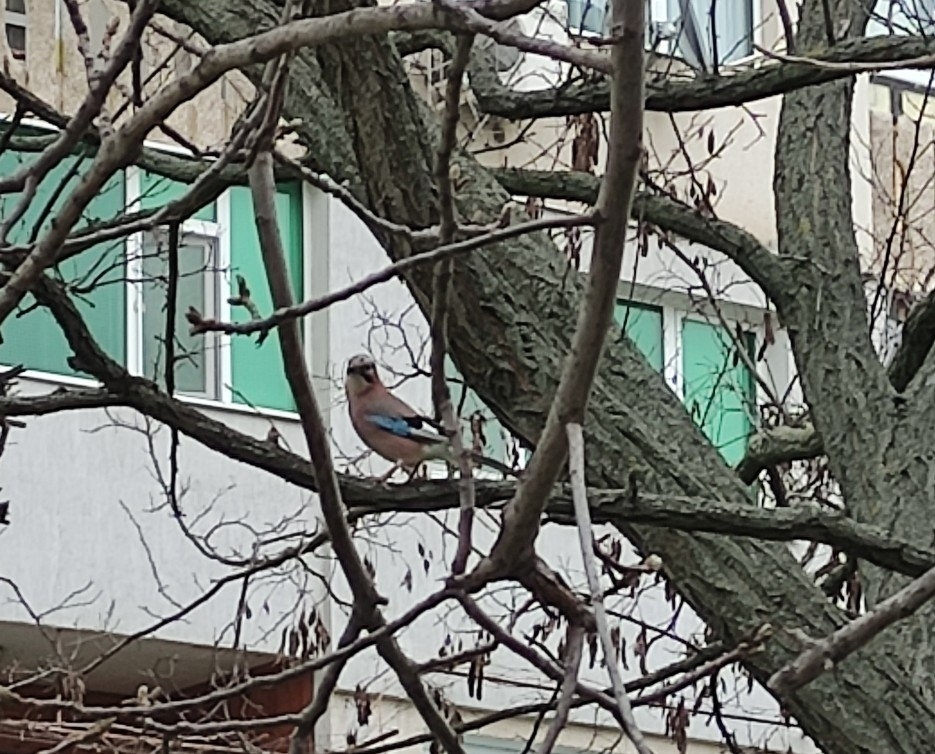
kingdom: Animalia
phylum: Chordata
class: Aves
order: Passeriformes
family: Corvidae
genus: Garrulus
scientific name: Garrulus glandarius
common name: Eurasian jay
